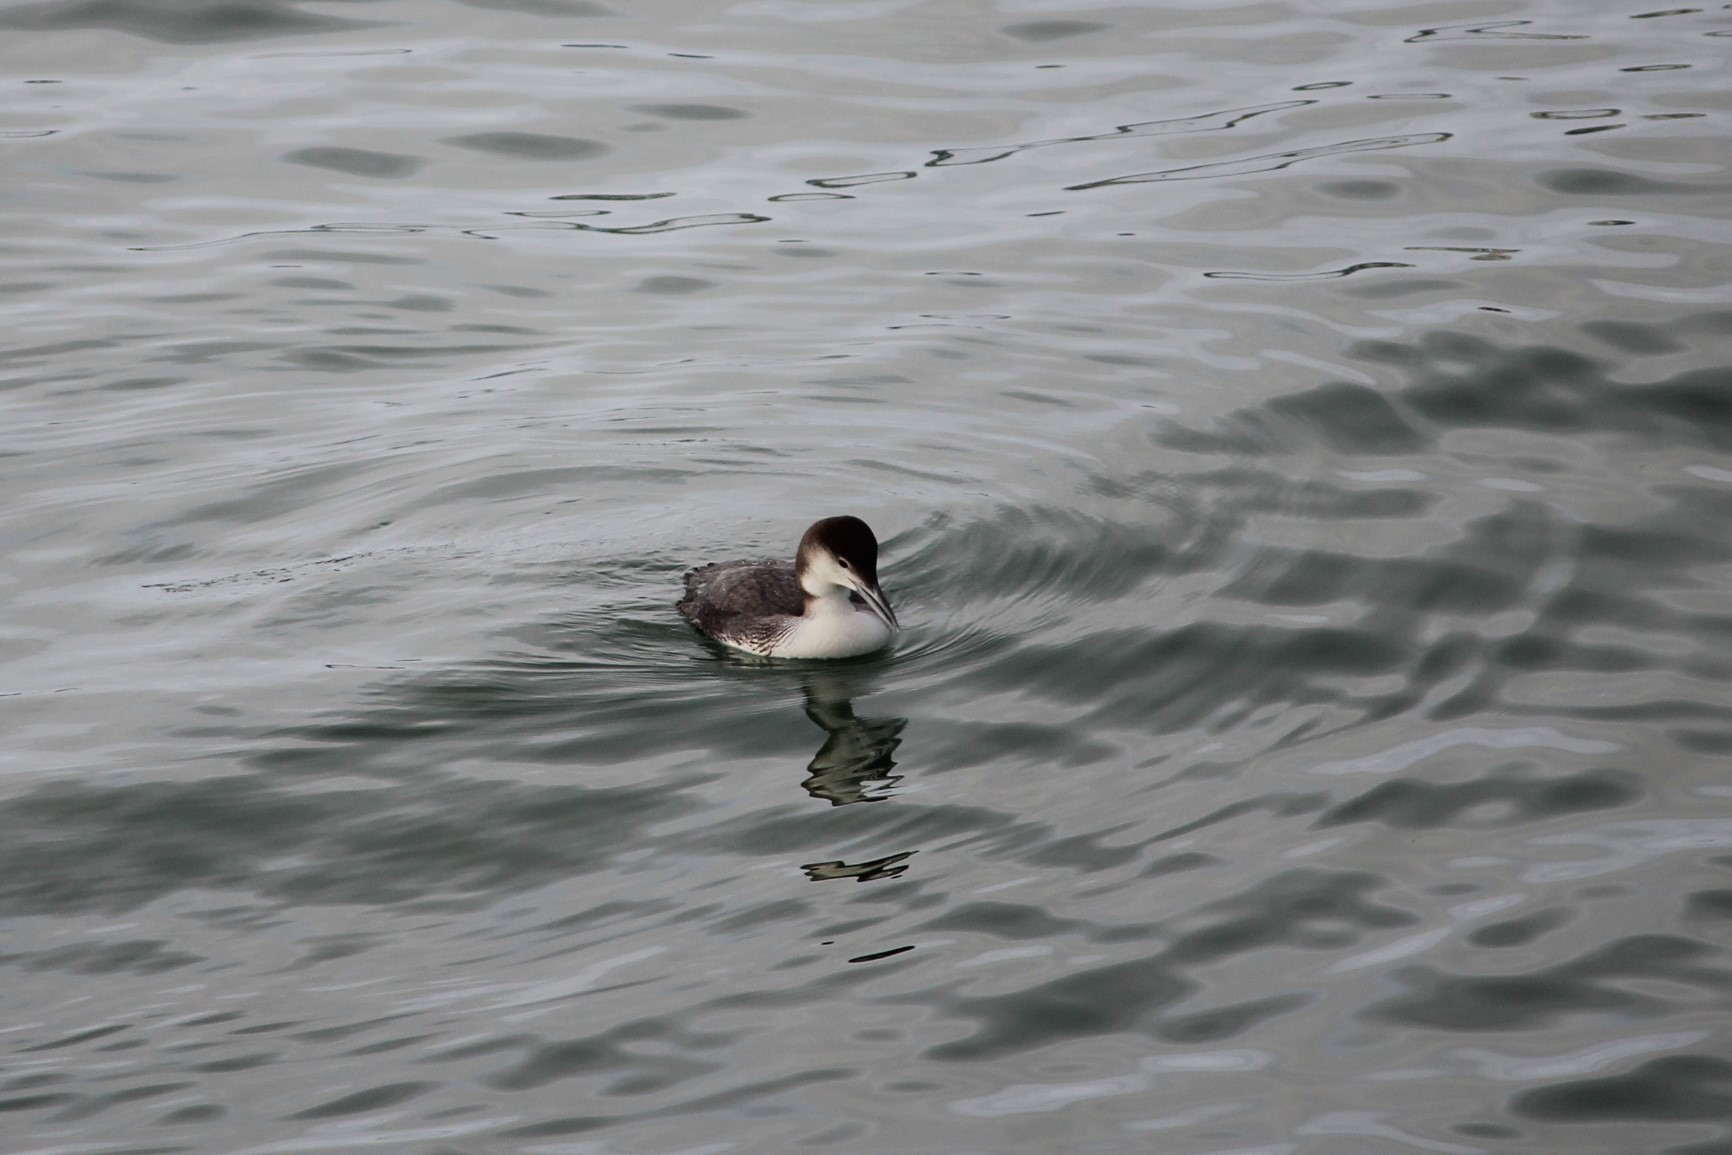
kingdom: Animalia
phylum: Chordata
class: Aves
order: Gaviiformes
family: Gaviidae
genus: Gavia
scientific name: Gavia immer
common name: Common loon
